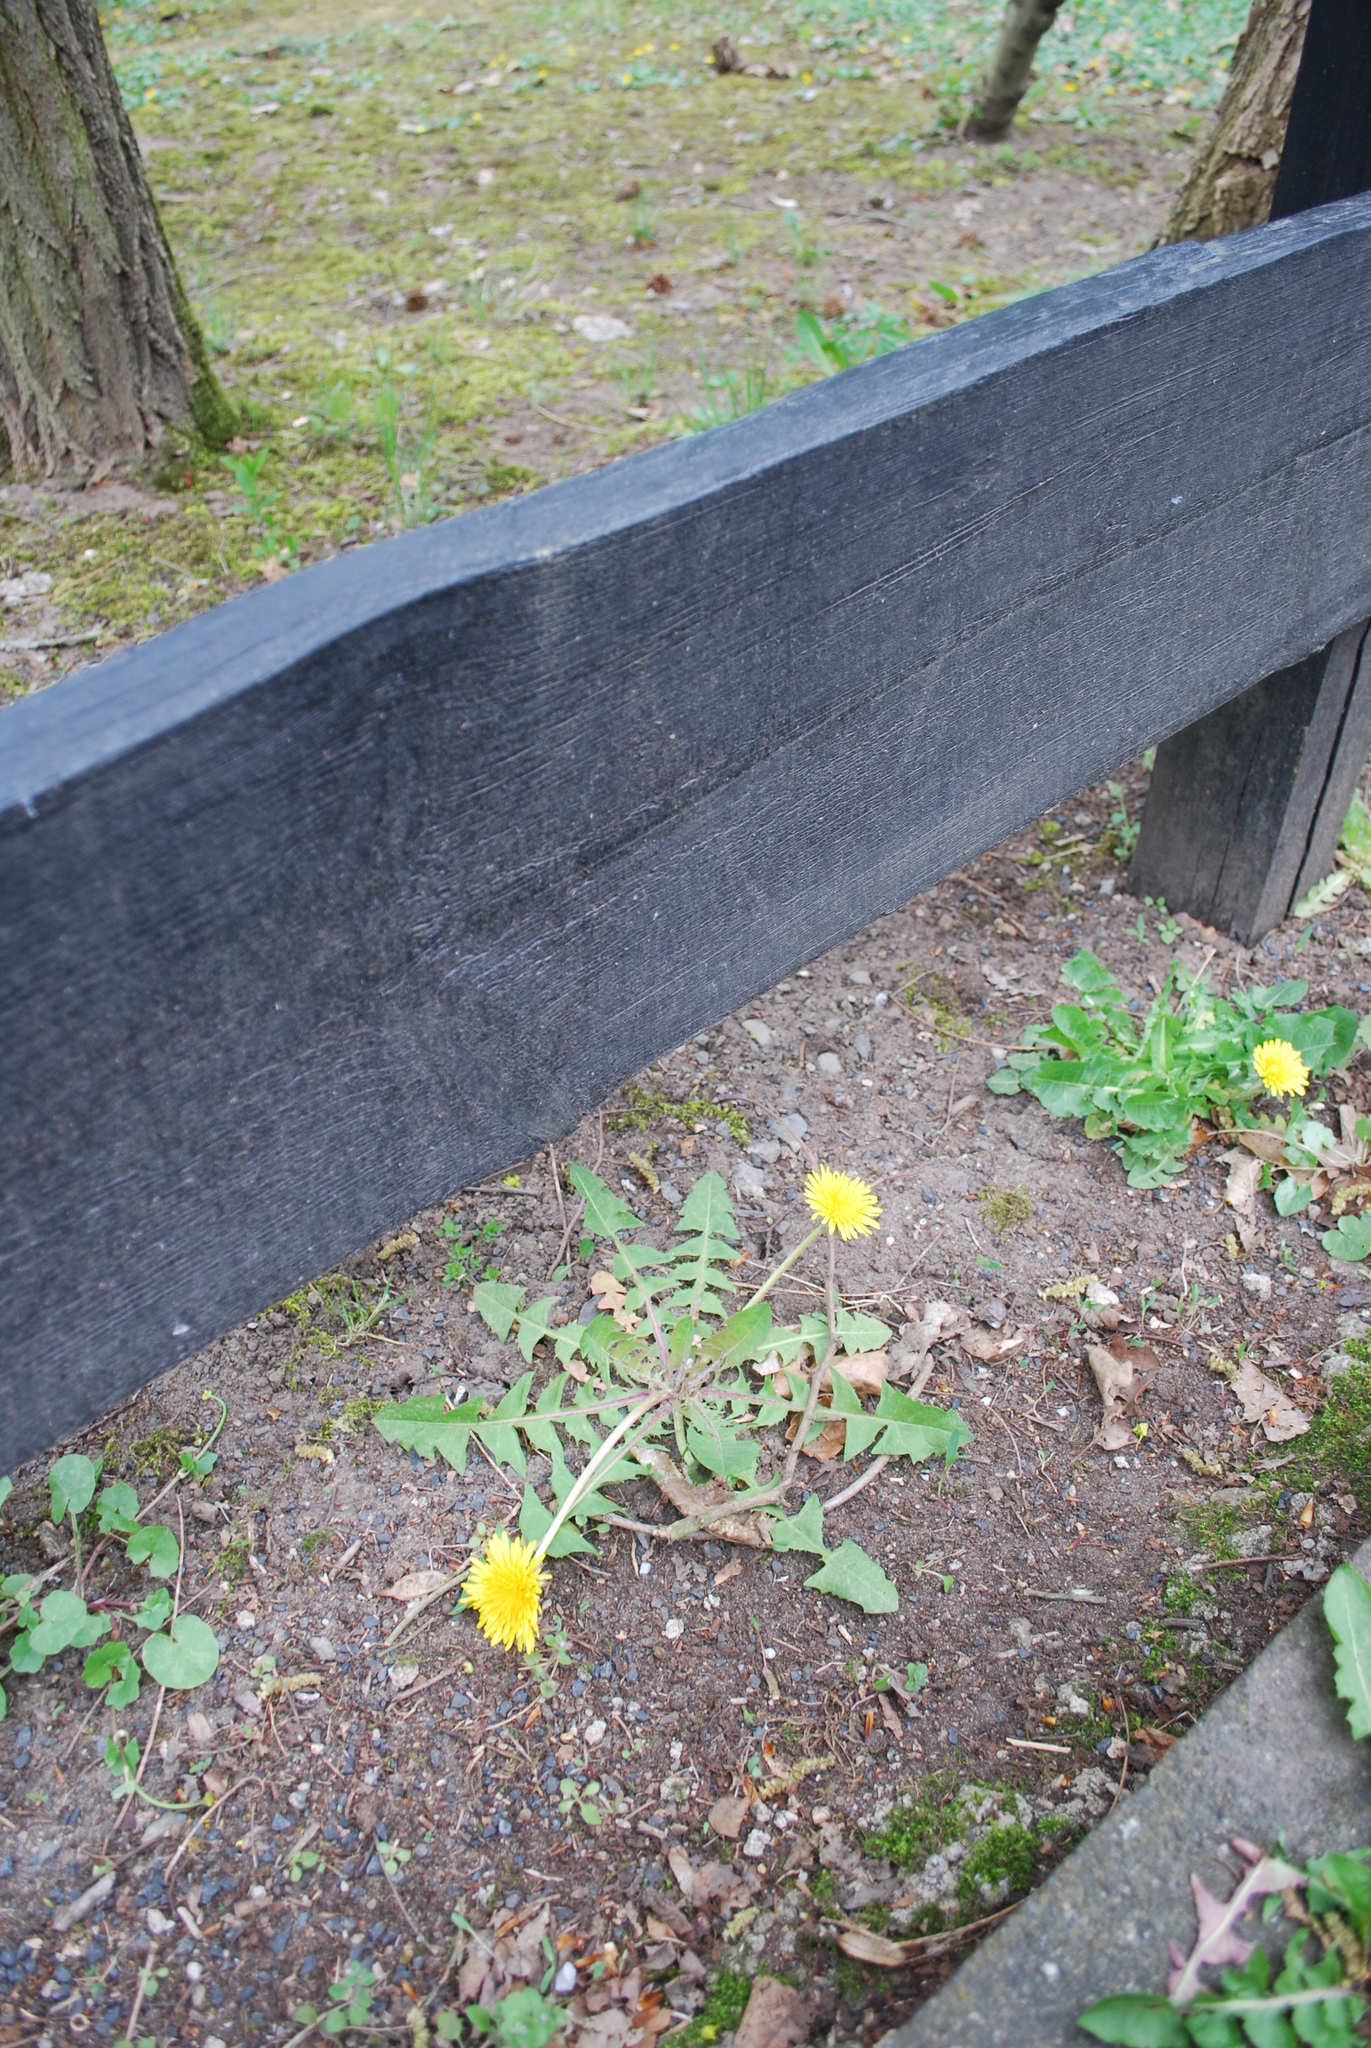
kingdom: Plantae
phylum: Tracheophyta
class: Magnoliopsida
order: Asterales
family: Asteraceae
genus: Taraxacum
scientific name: Taraxacum officinale
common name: Common dandelion
